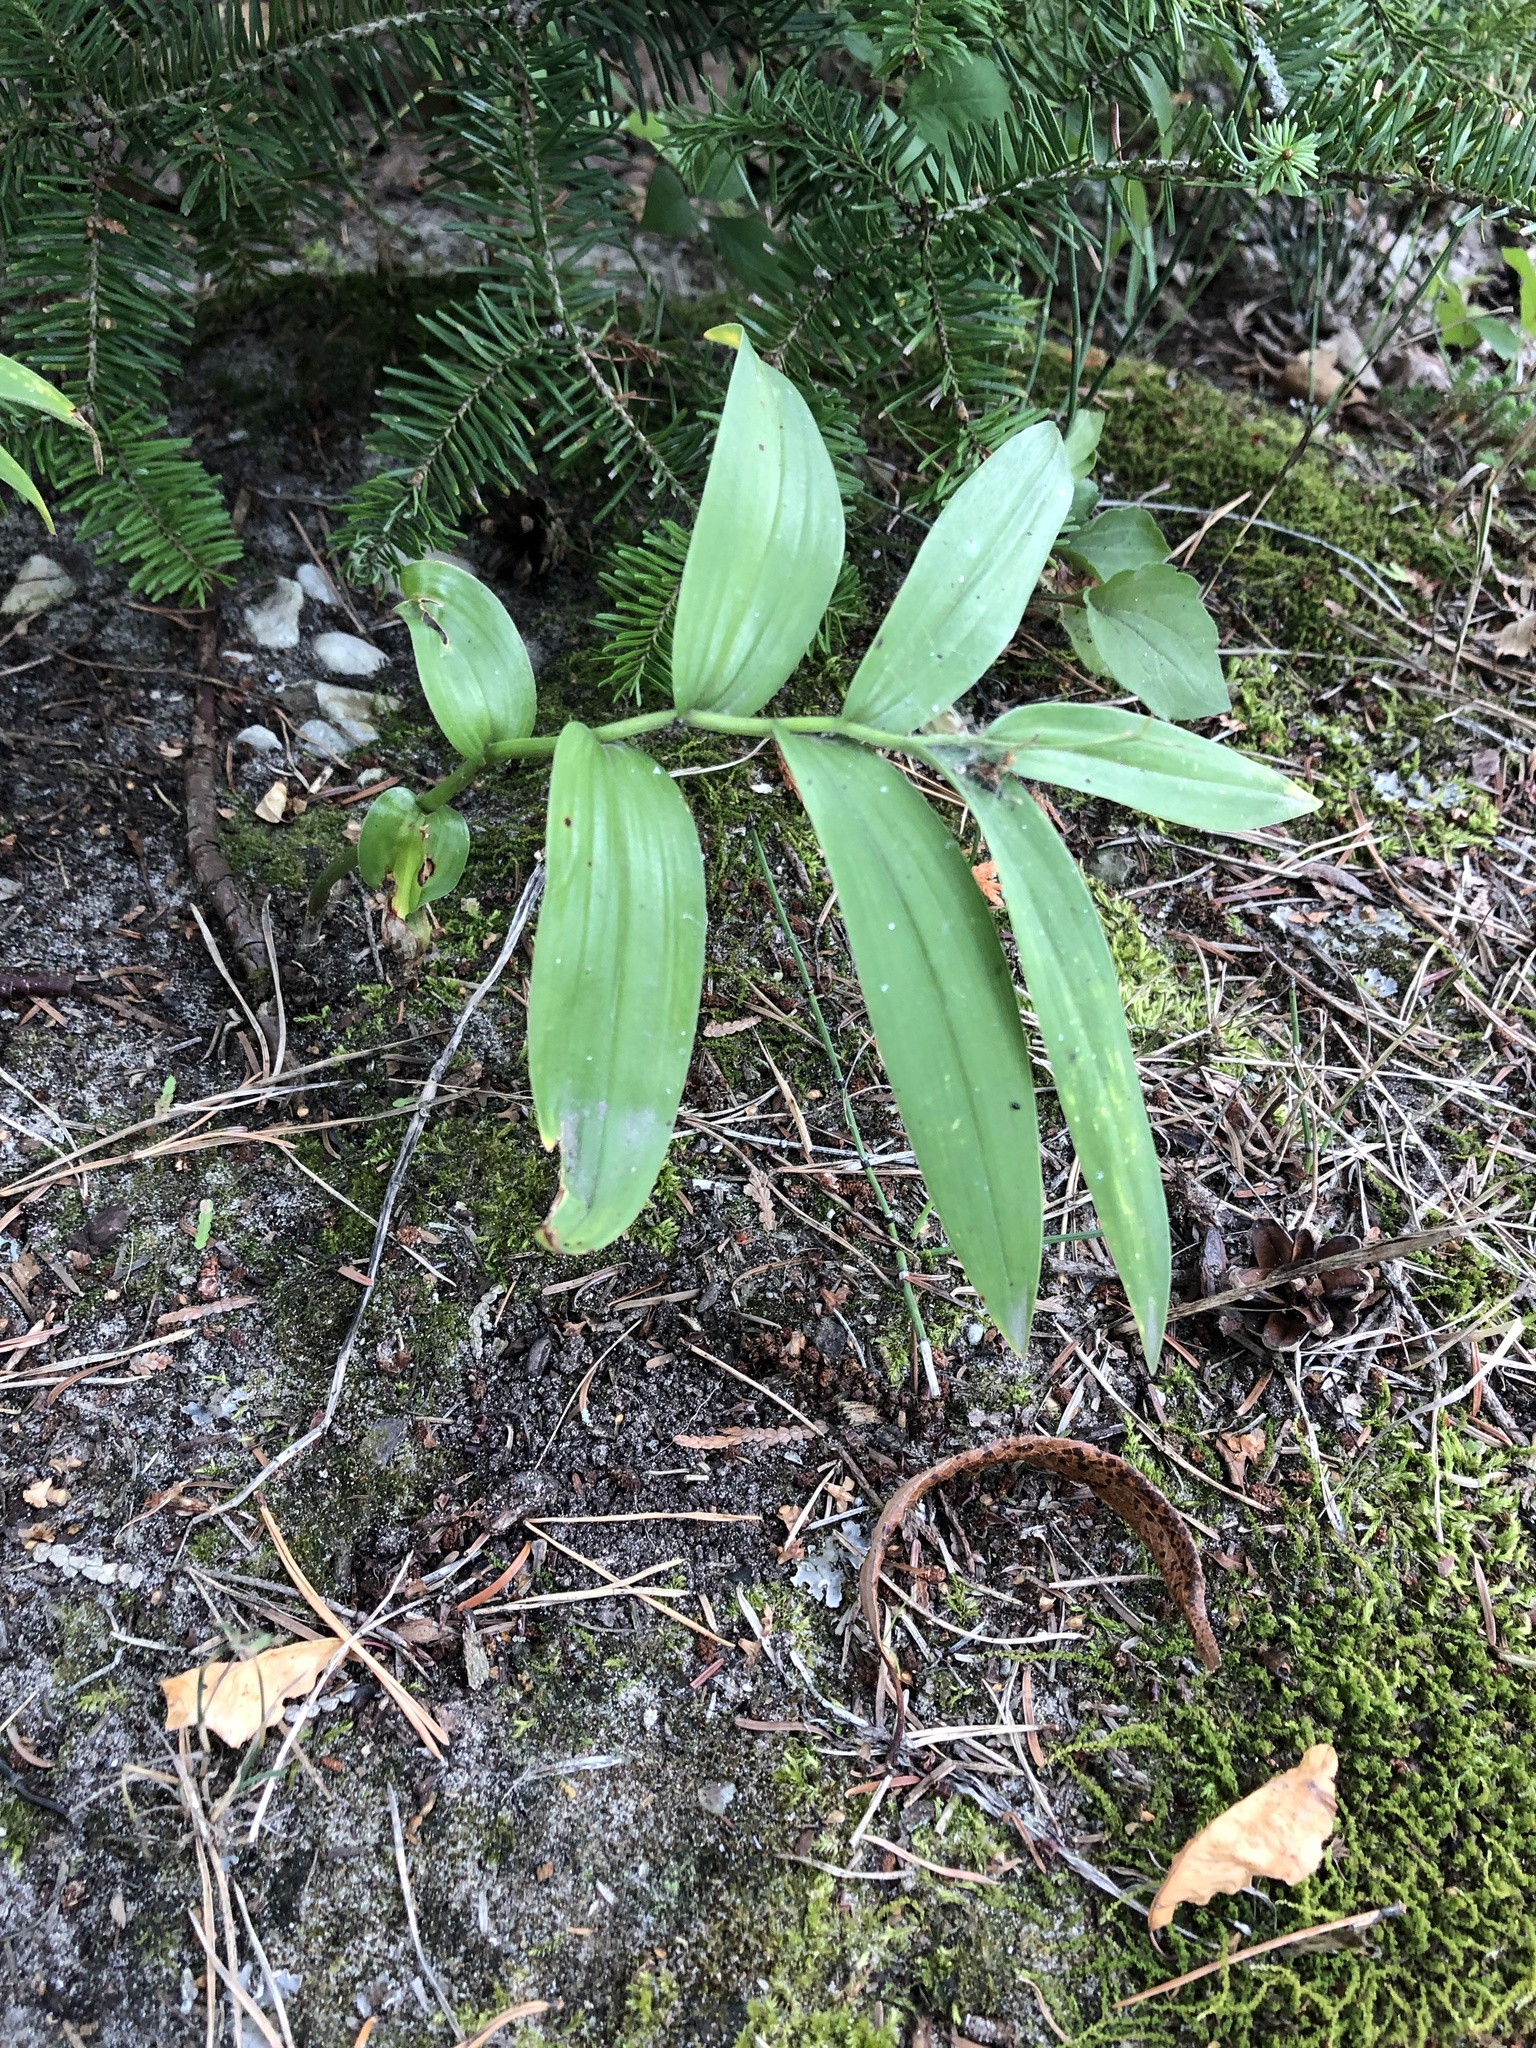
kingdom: Plantae
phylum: Tracheophyta
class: Liliopsida
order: Asparagales
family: Asparagaceae
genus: Maianthemum
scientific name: Maianthemum stellatum
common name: Little false solomon's seal
